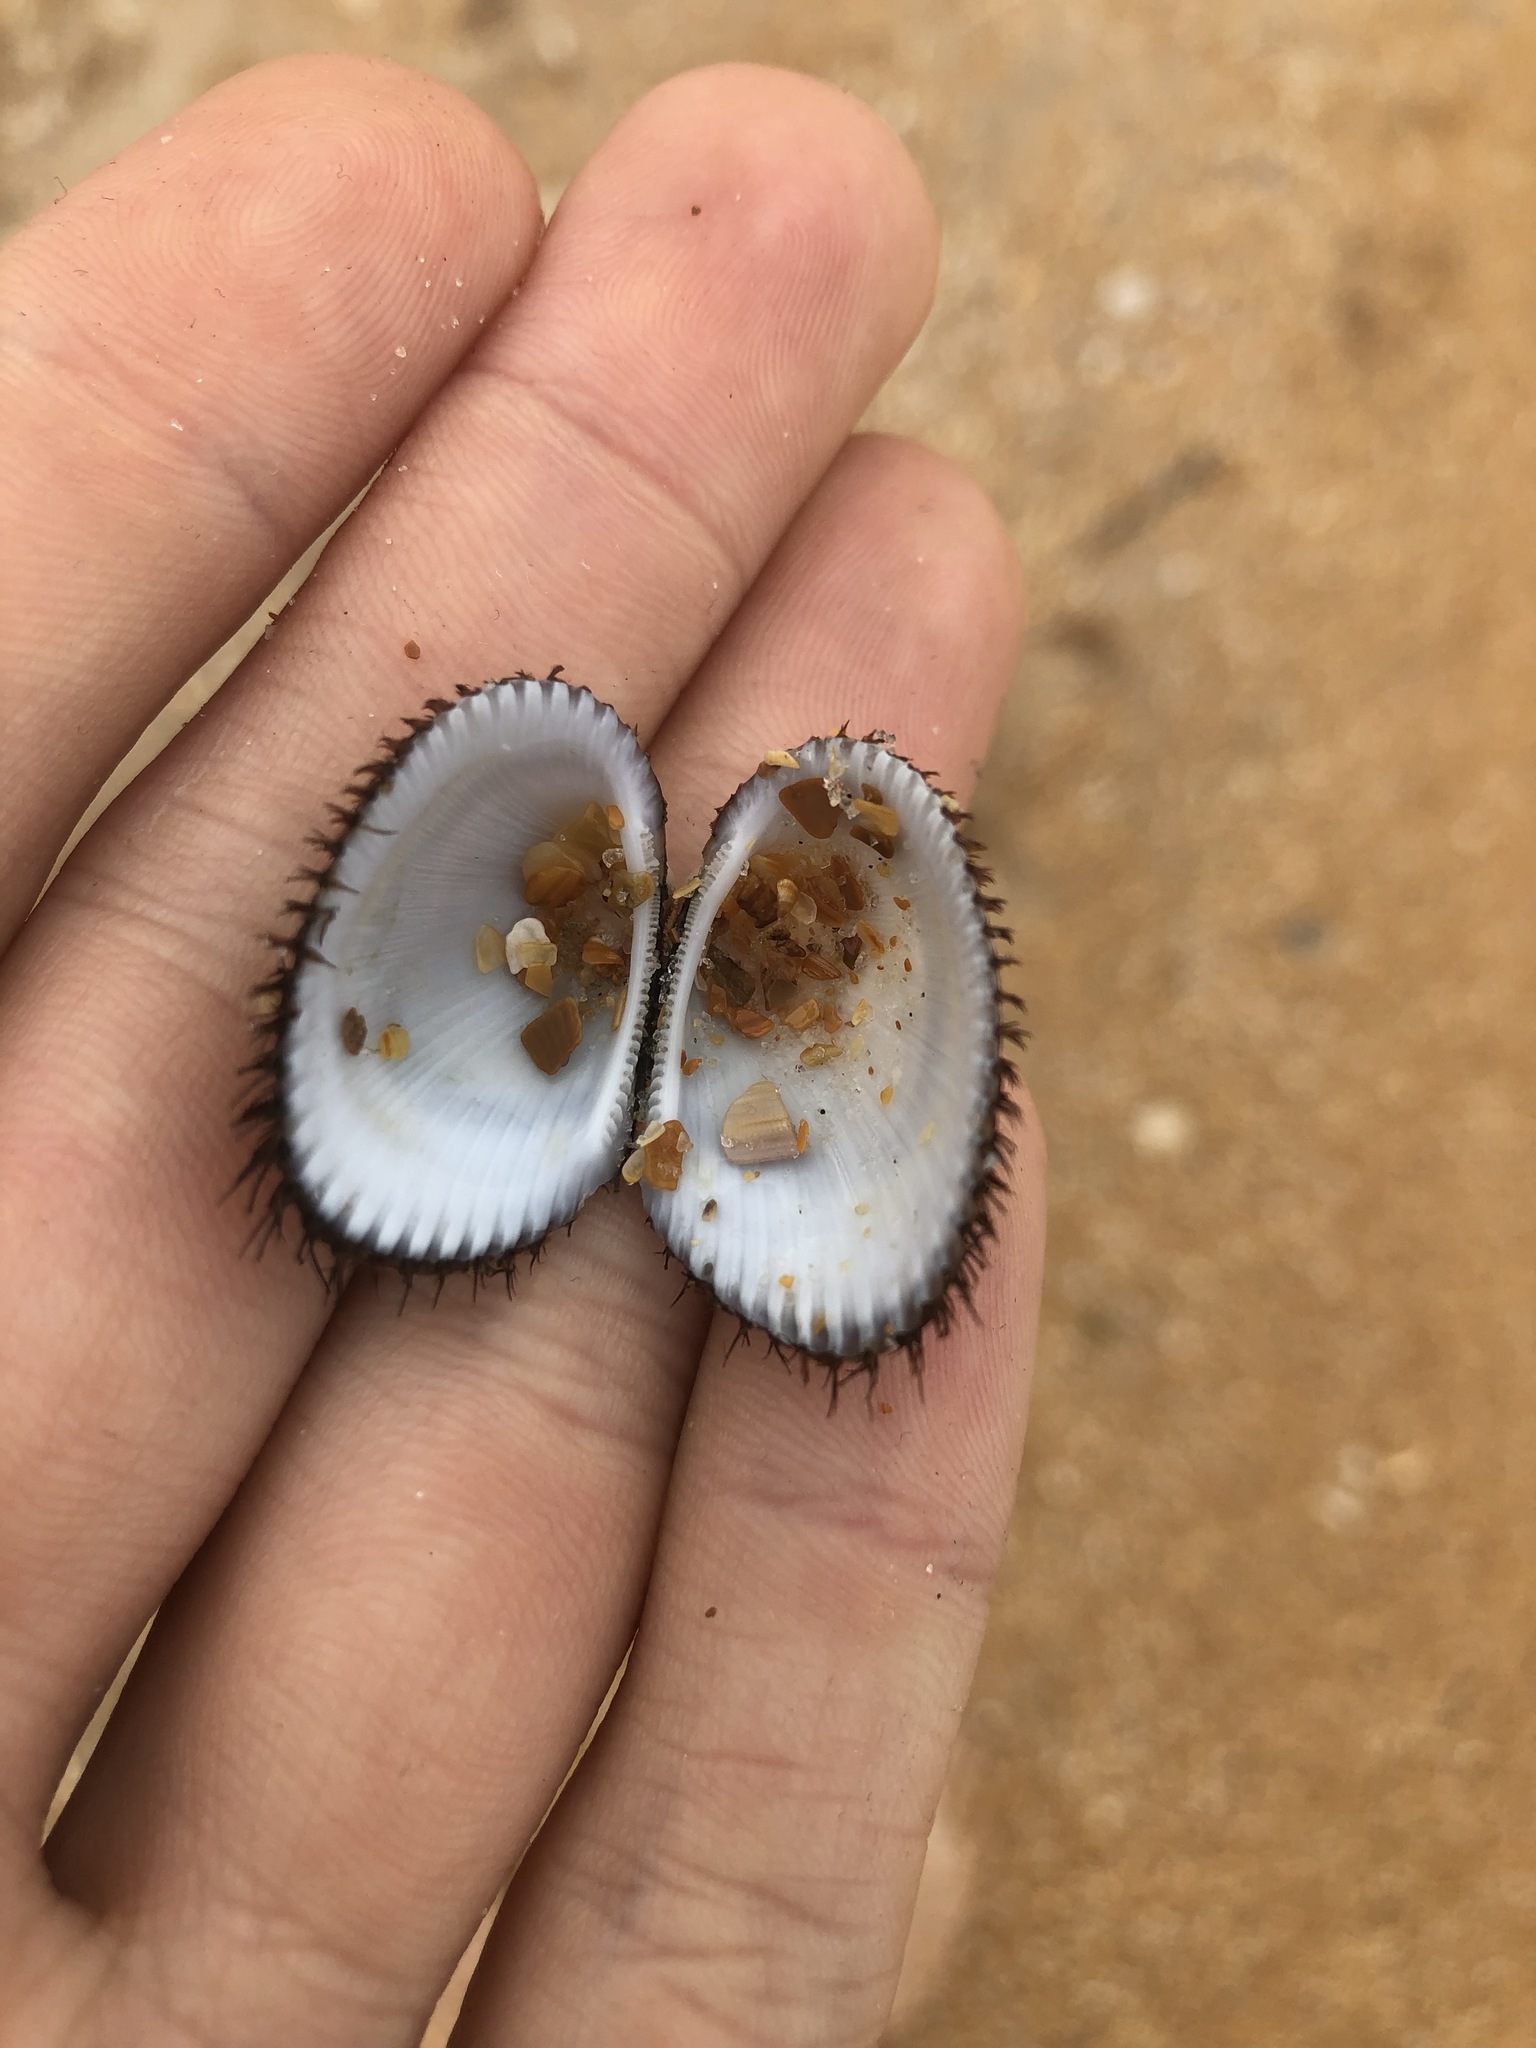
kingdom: Animalia
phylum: Mollusca
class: Bivalvia
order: Arcida
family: Arcidae
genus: Lunarca
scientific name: Lunarca ovalis
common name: Blood ark
